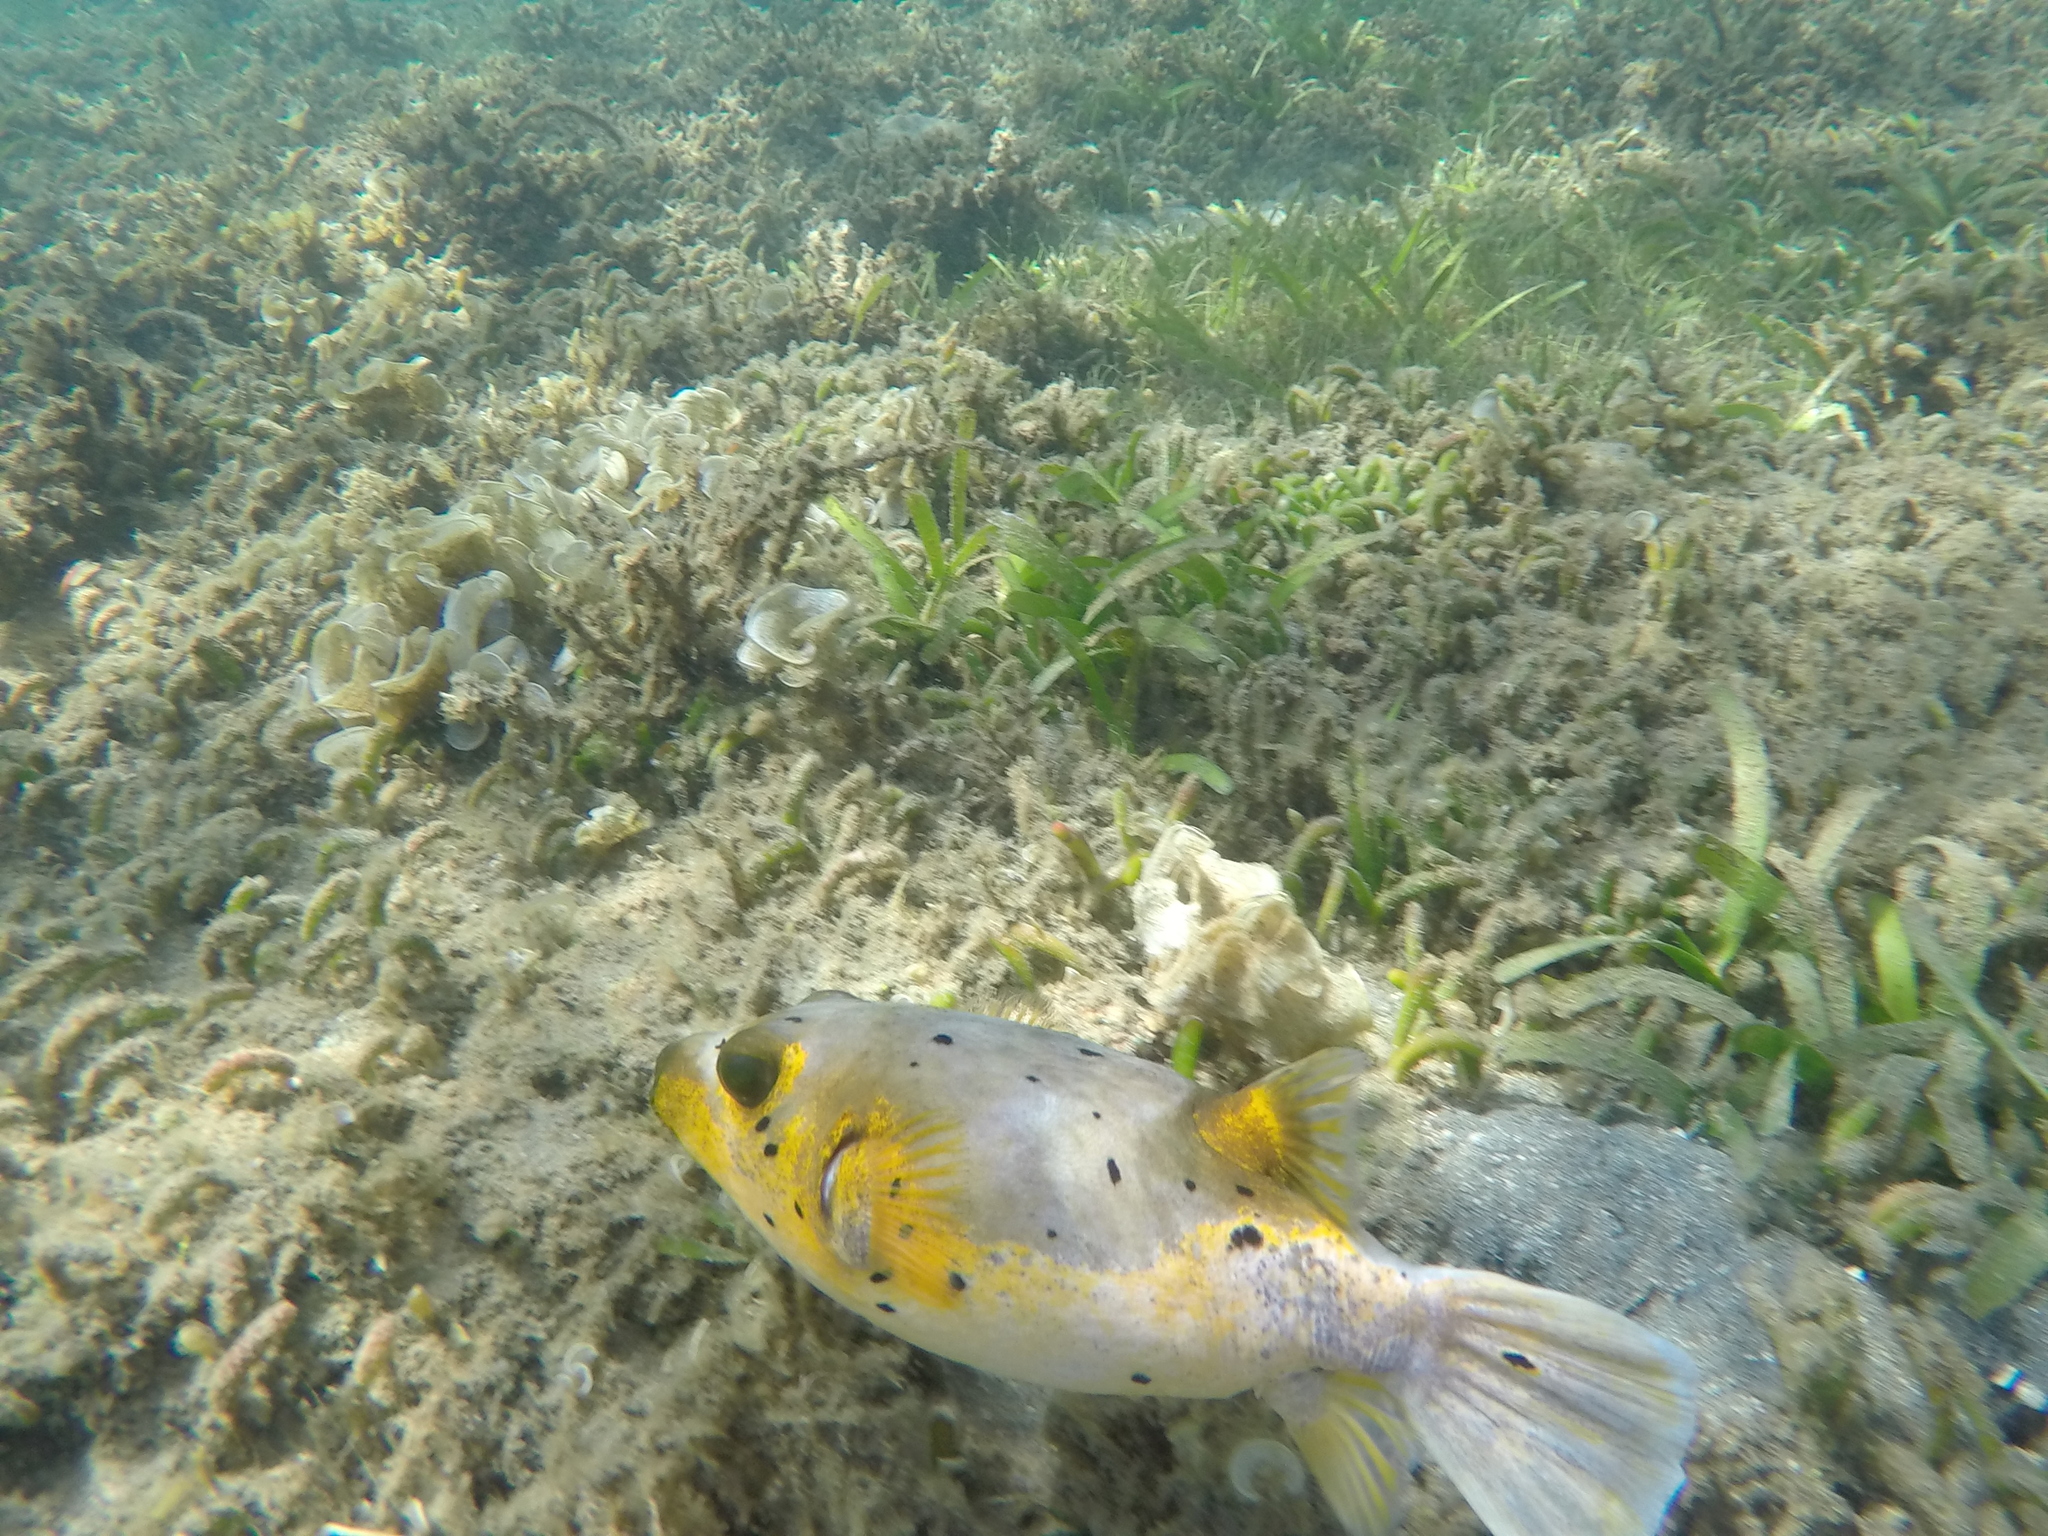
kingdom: Animalia
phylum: Chordata
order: Tetraodontiformes
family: Tetraodontidae
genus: Arothron
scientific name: Arothron nigropunctatus
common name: Black spotted blow fish
